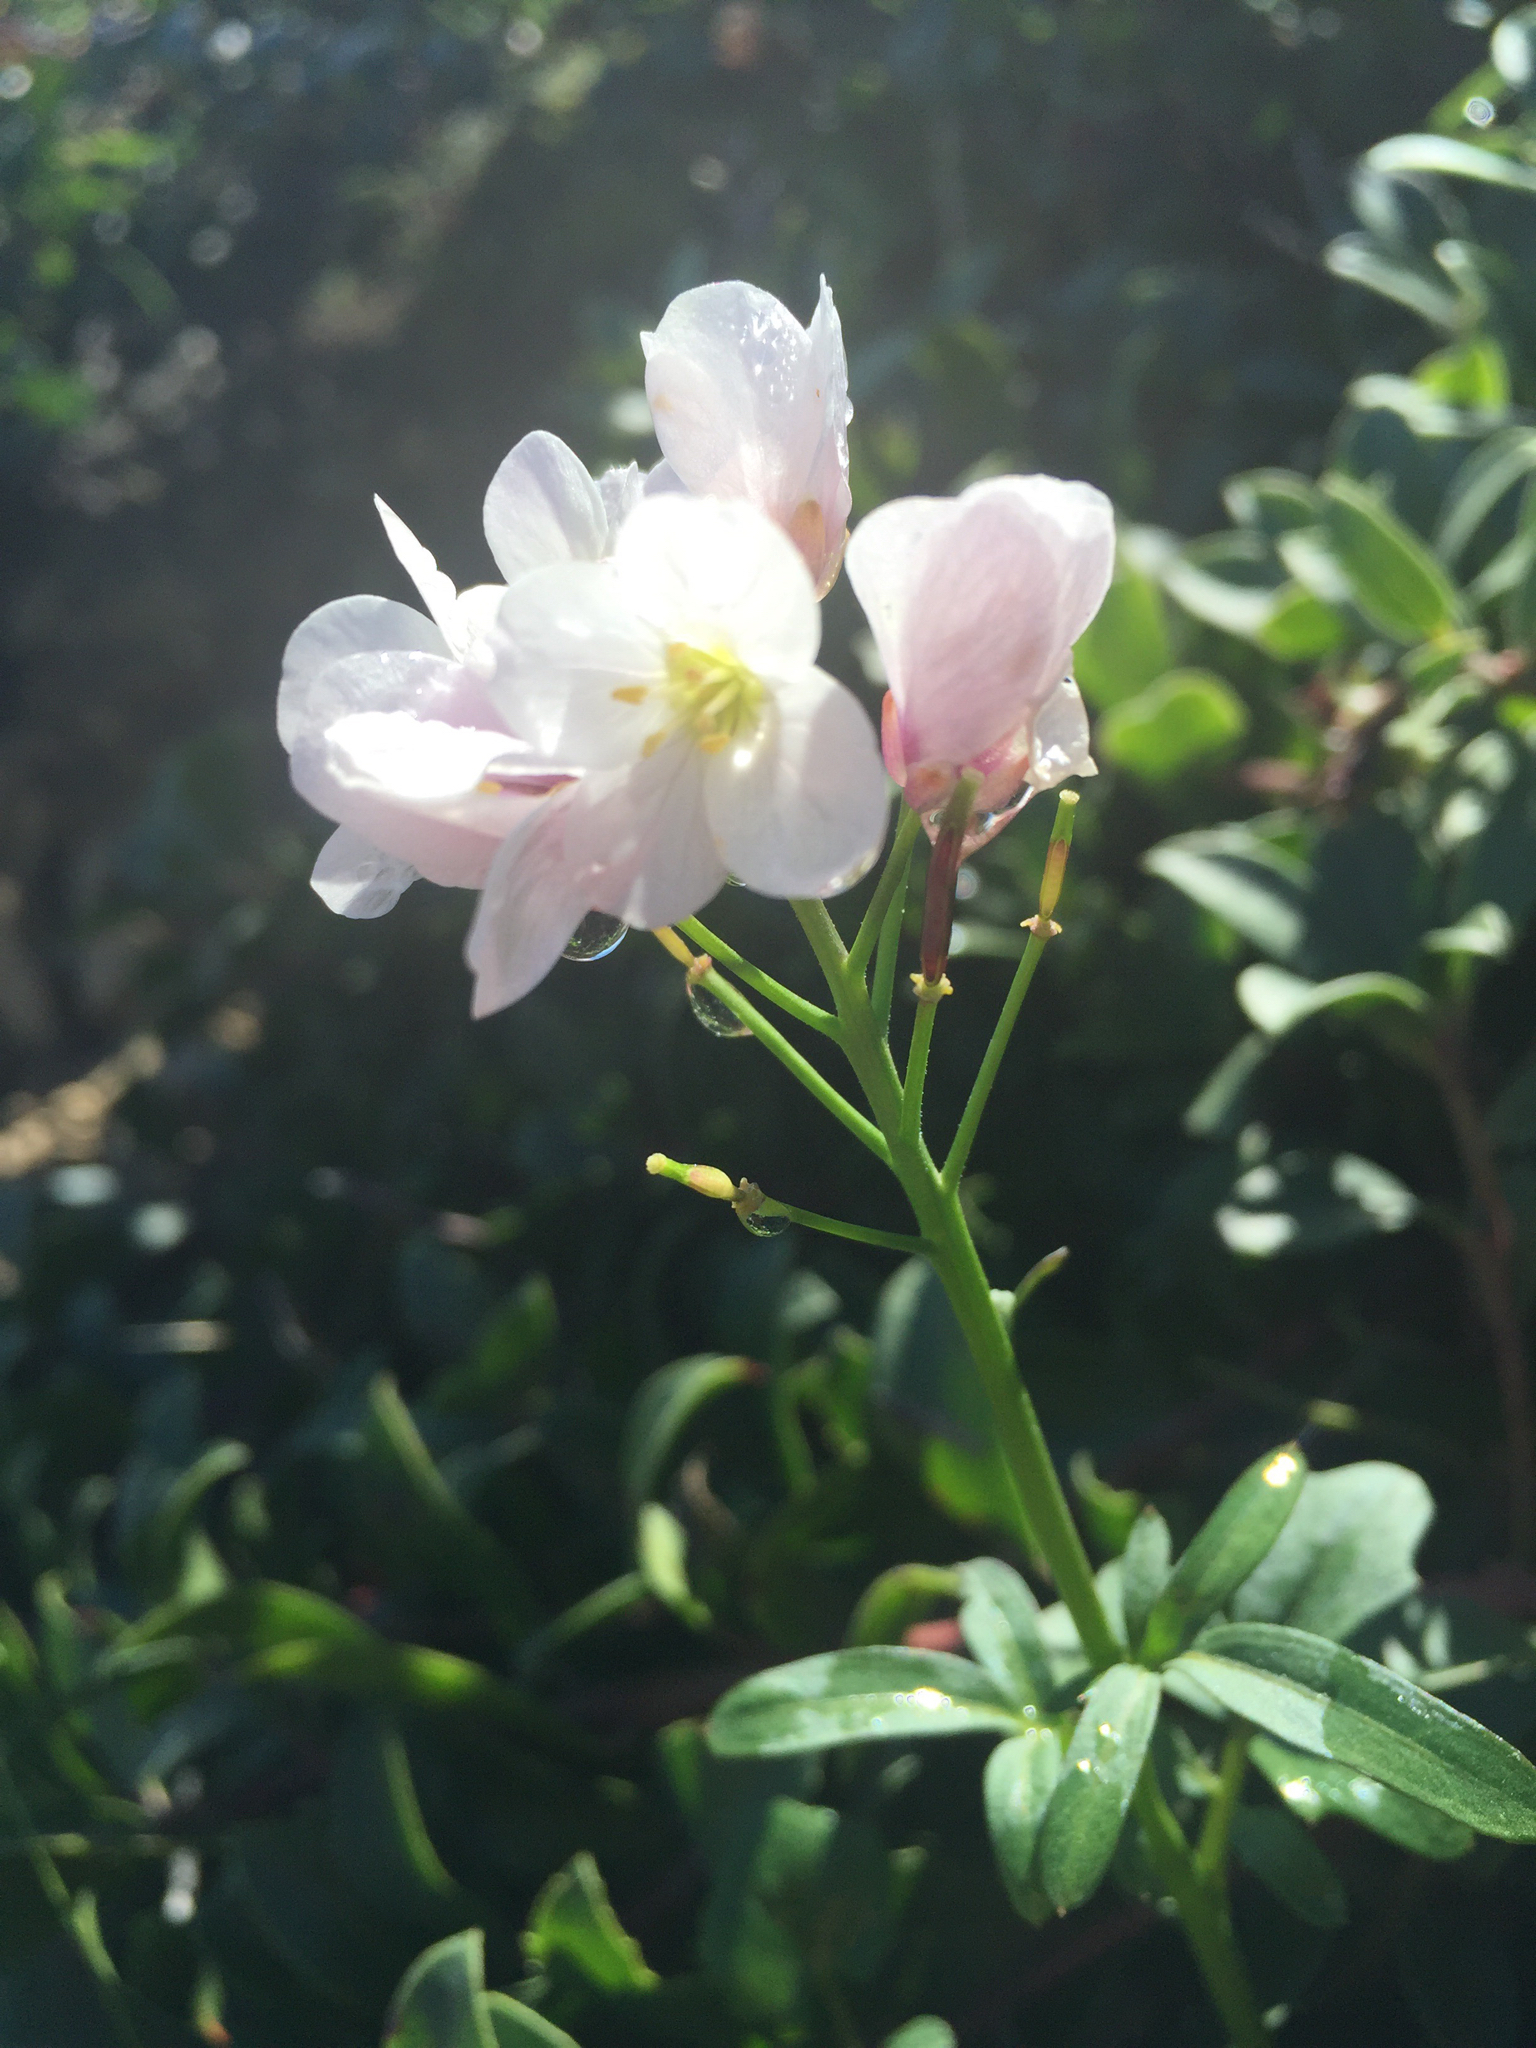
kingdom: Plantae
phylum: Tracheophyta
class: Magnoliopsida
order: Brassicales
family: Brassicaceae
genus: Cardamine
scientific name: Cardamine californica
